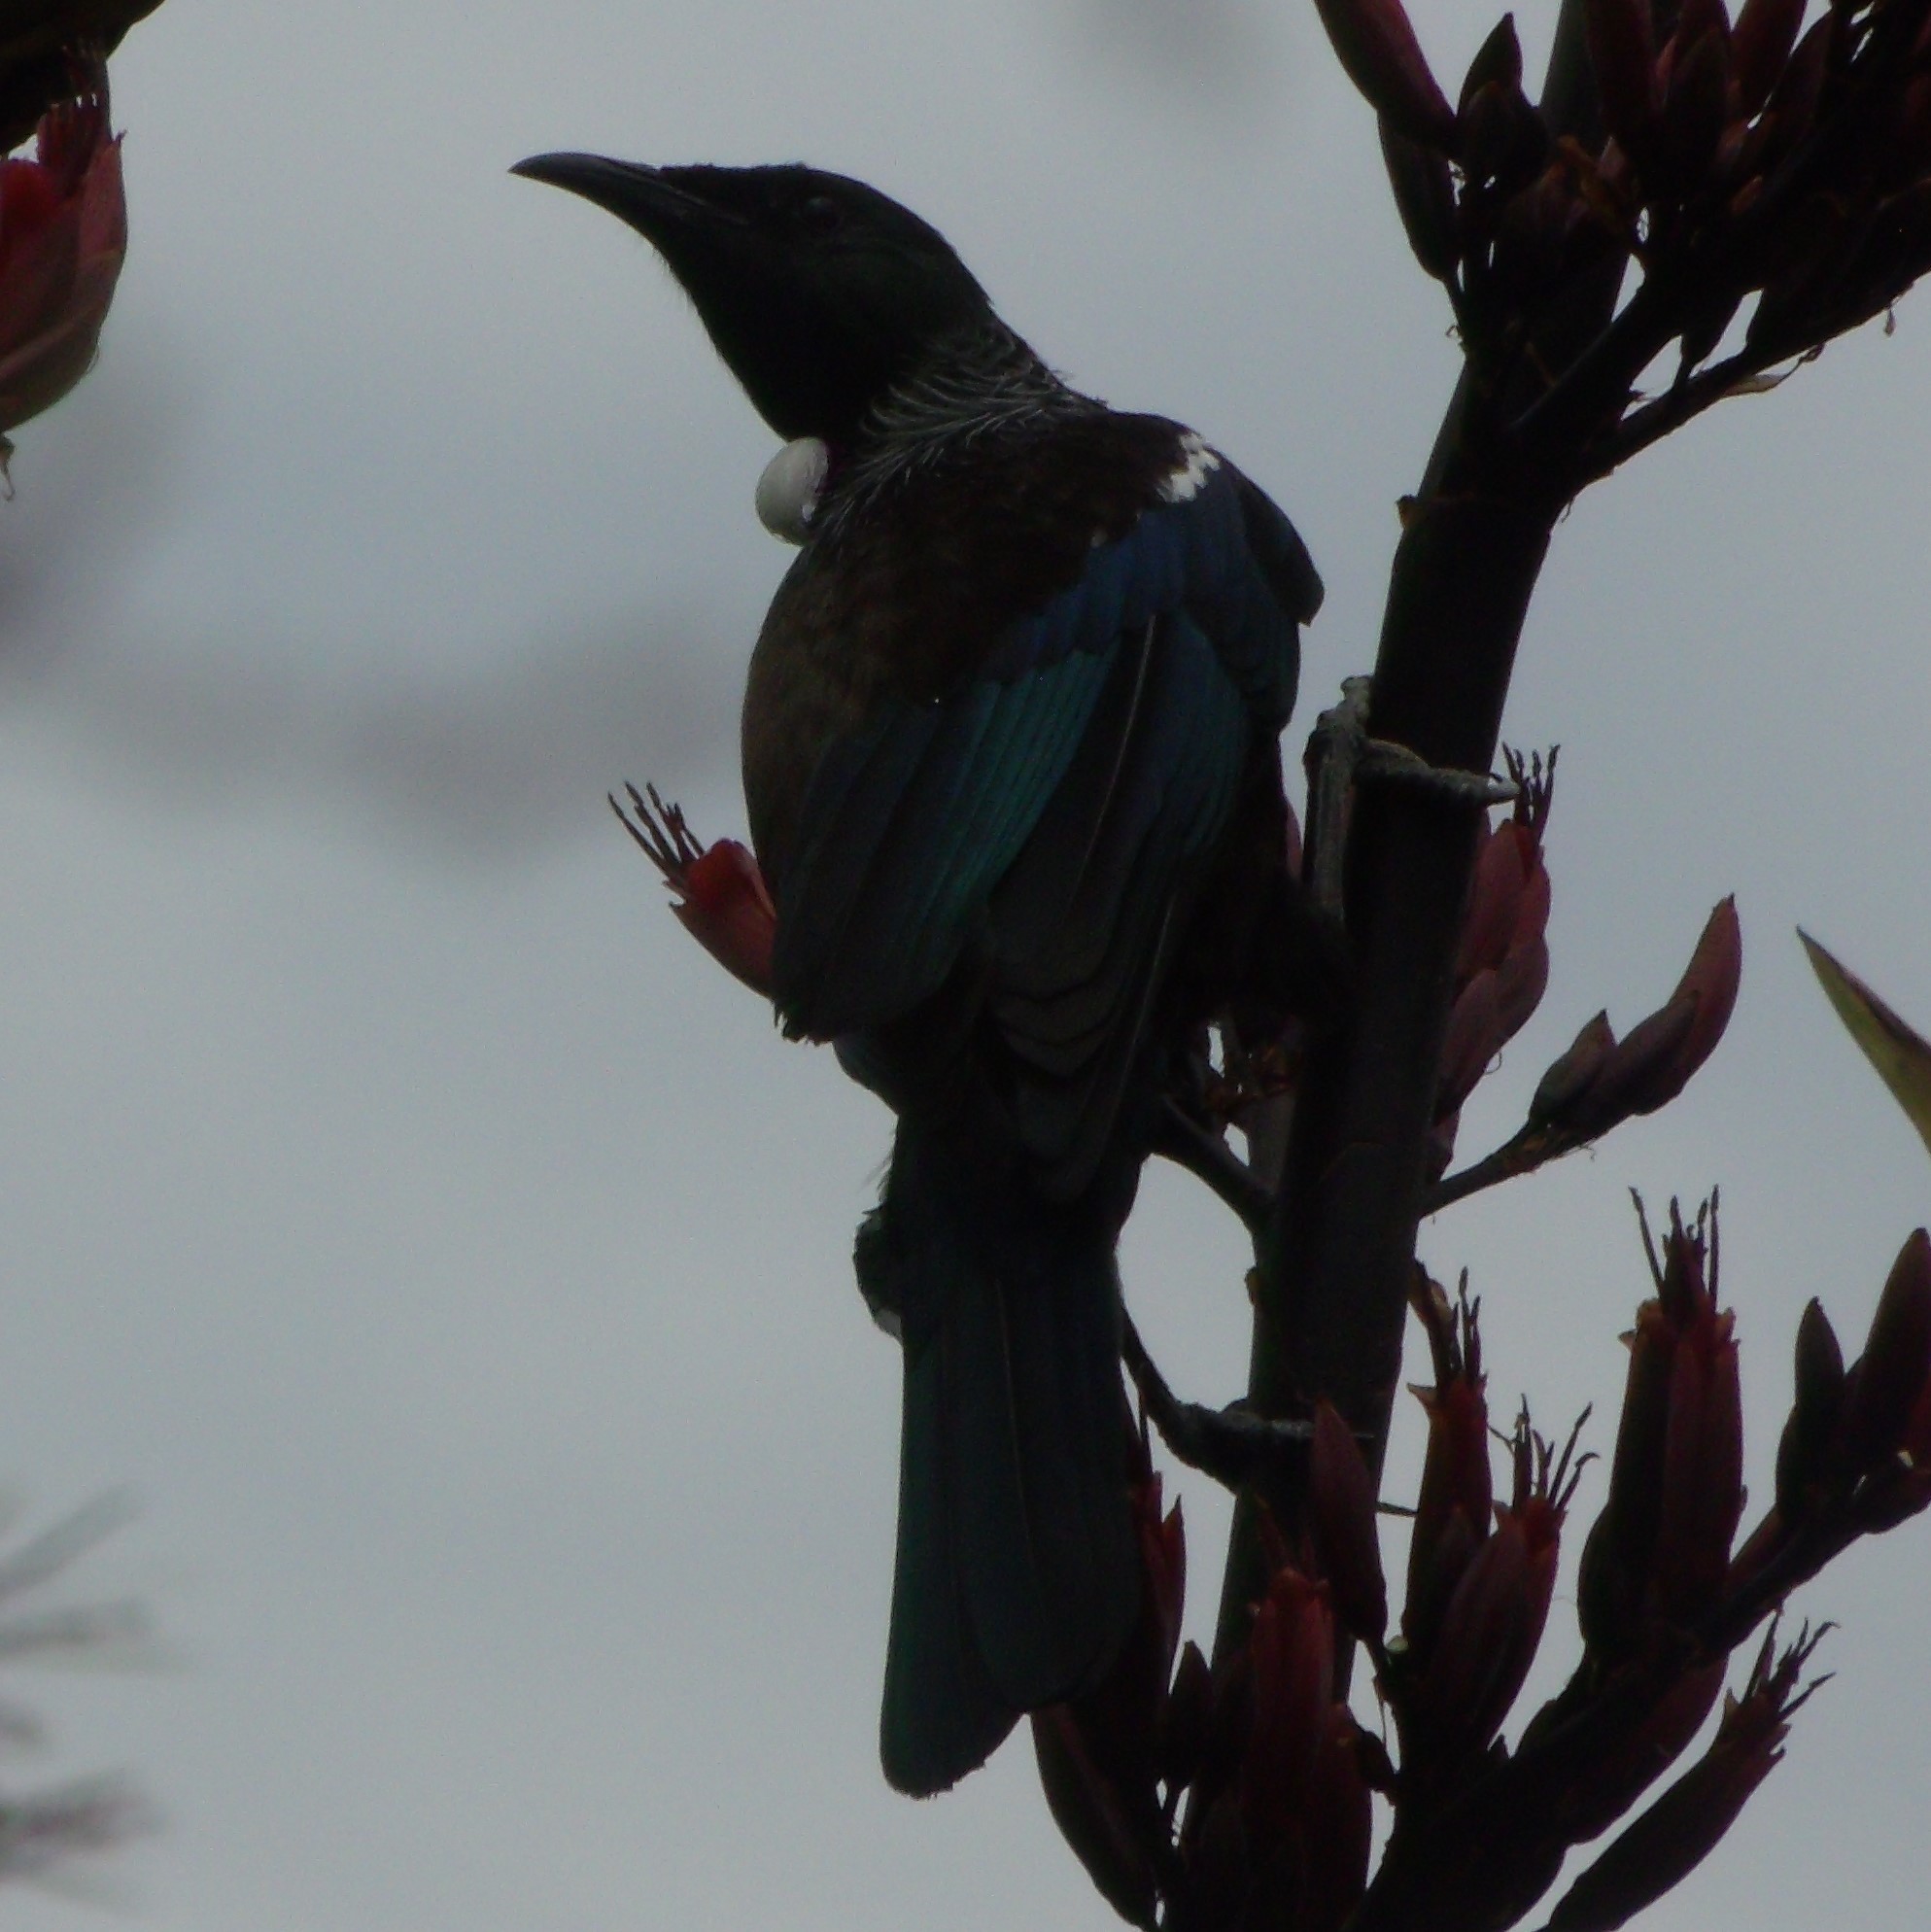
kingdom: Animalia
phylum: Chordata
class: Aves
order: Passeriformes
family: Meliphagidae
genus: Prosthemadera
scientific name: Prosthemadera novaeseelandiae
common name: Tui
